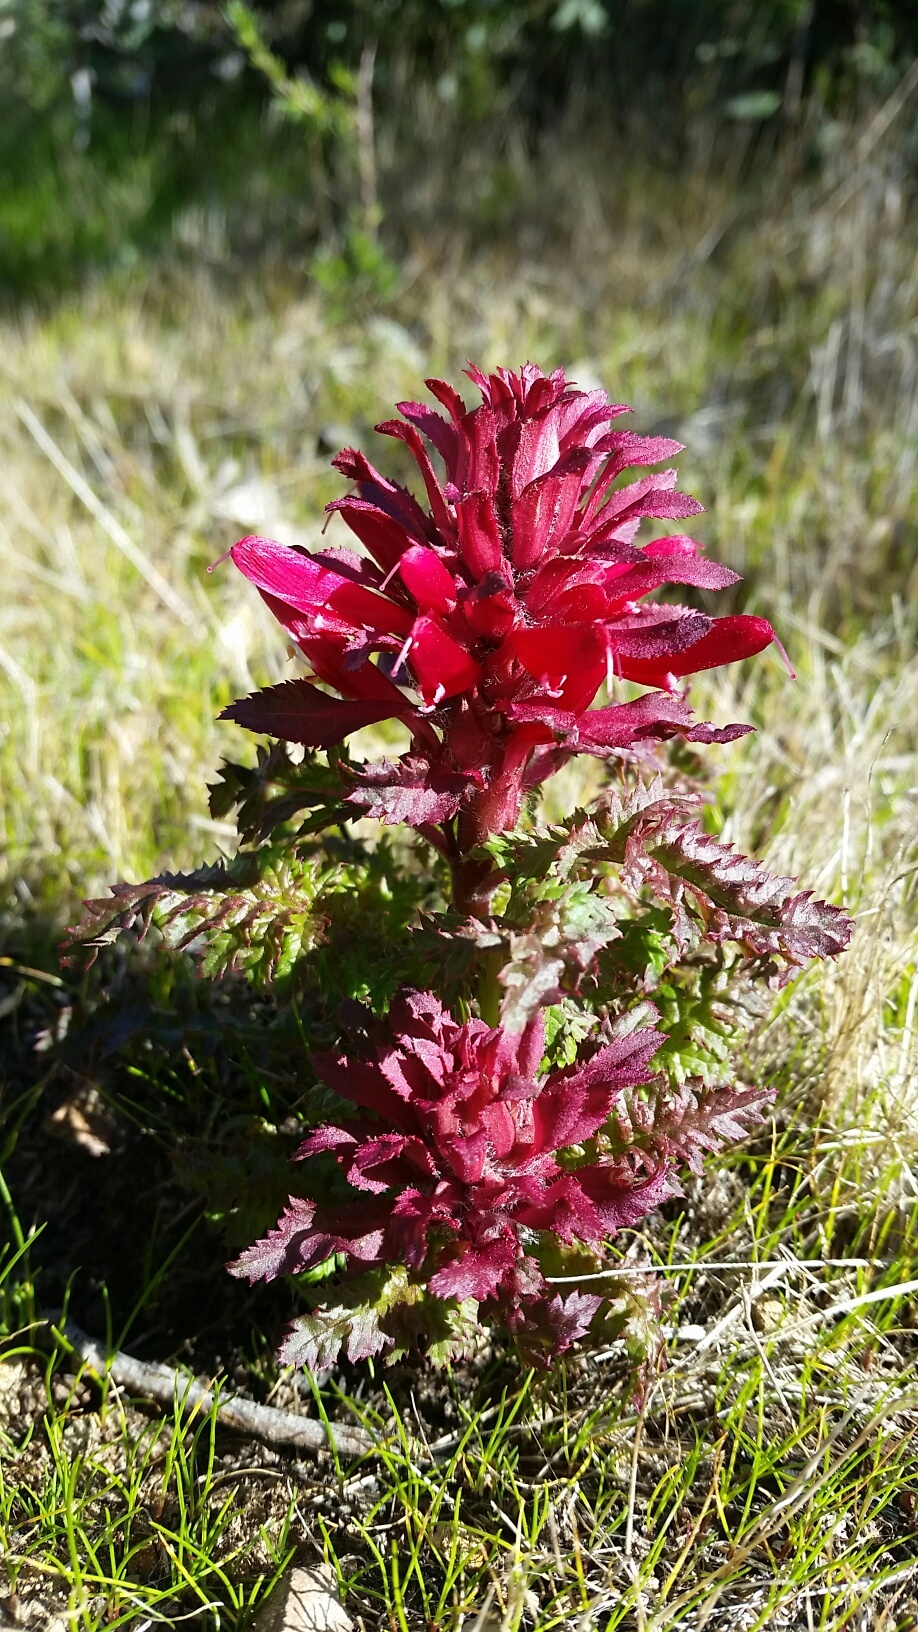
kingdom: Plantae
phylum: Tracheophyta
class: Magnoliopsida
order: Lamiales
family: Orobanchaceae
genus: Pedicularis
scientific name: Pedicularis densiflora
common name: Indian warrior
